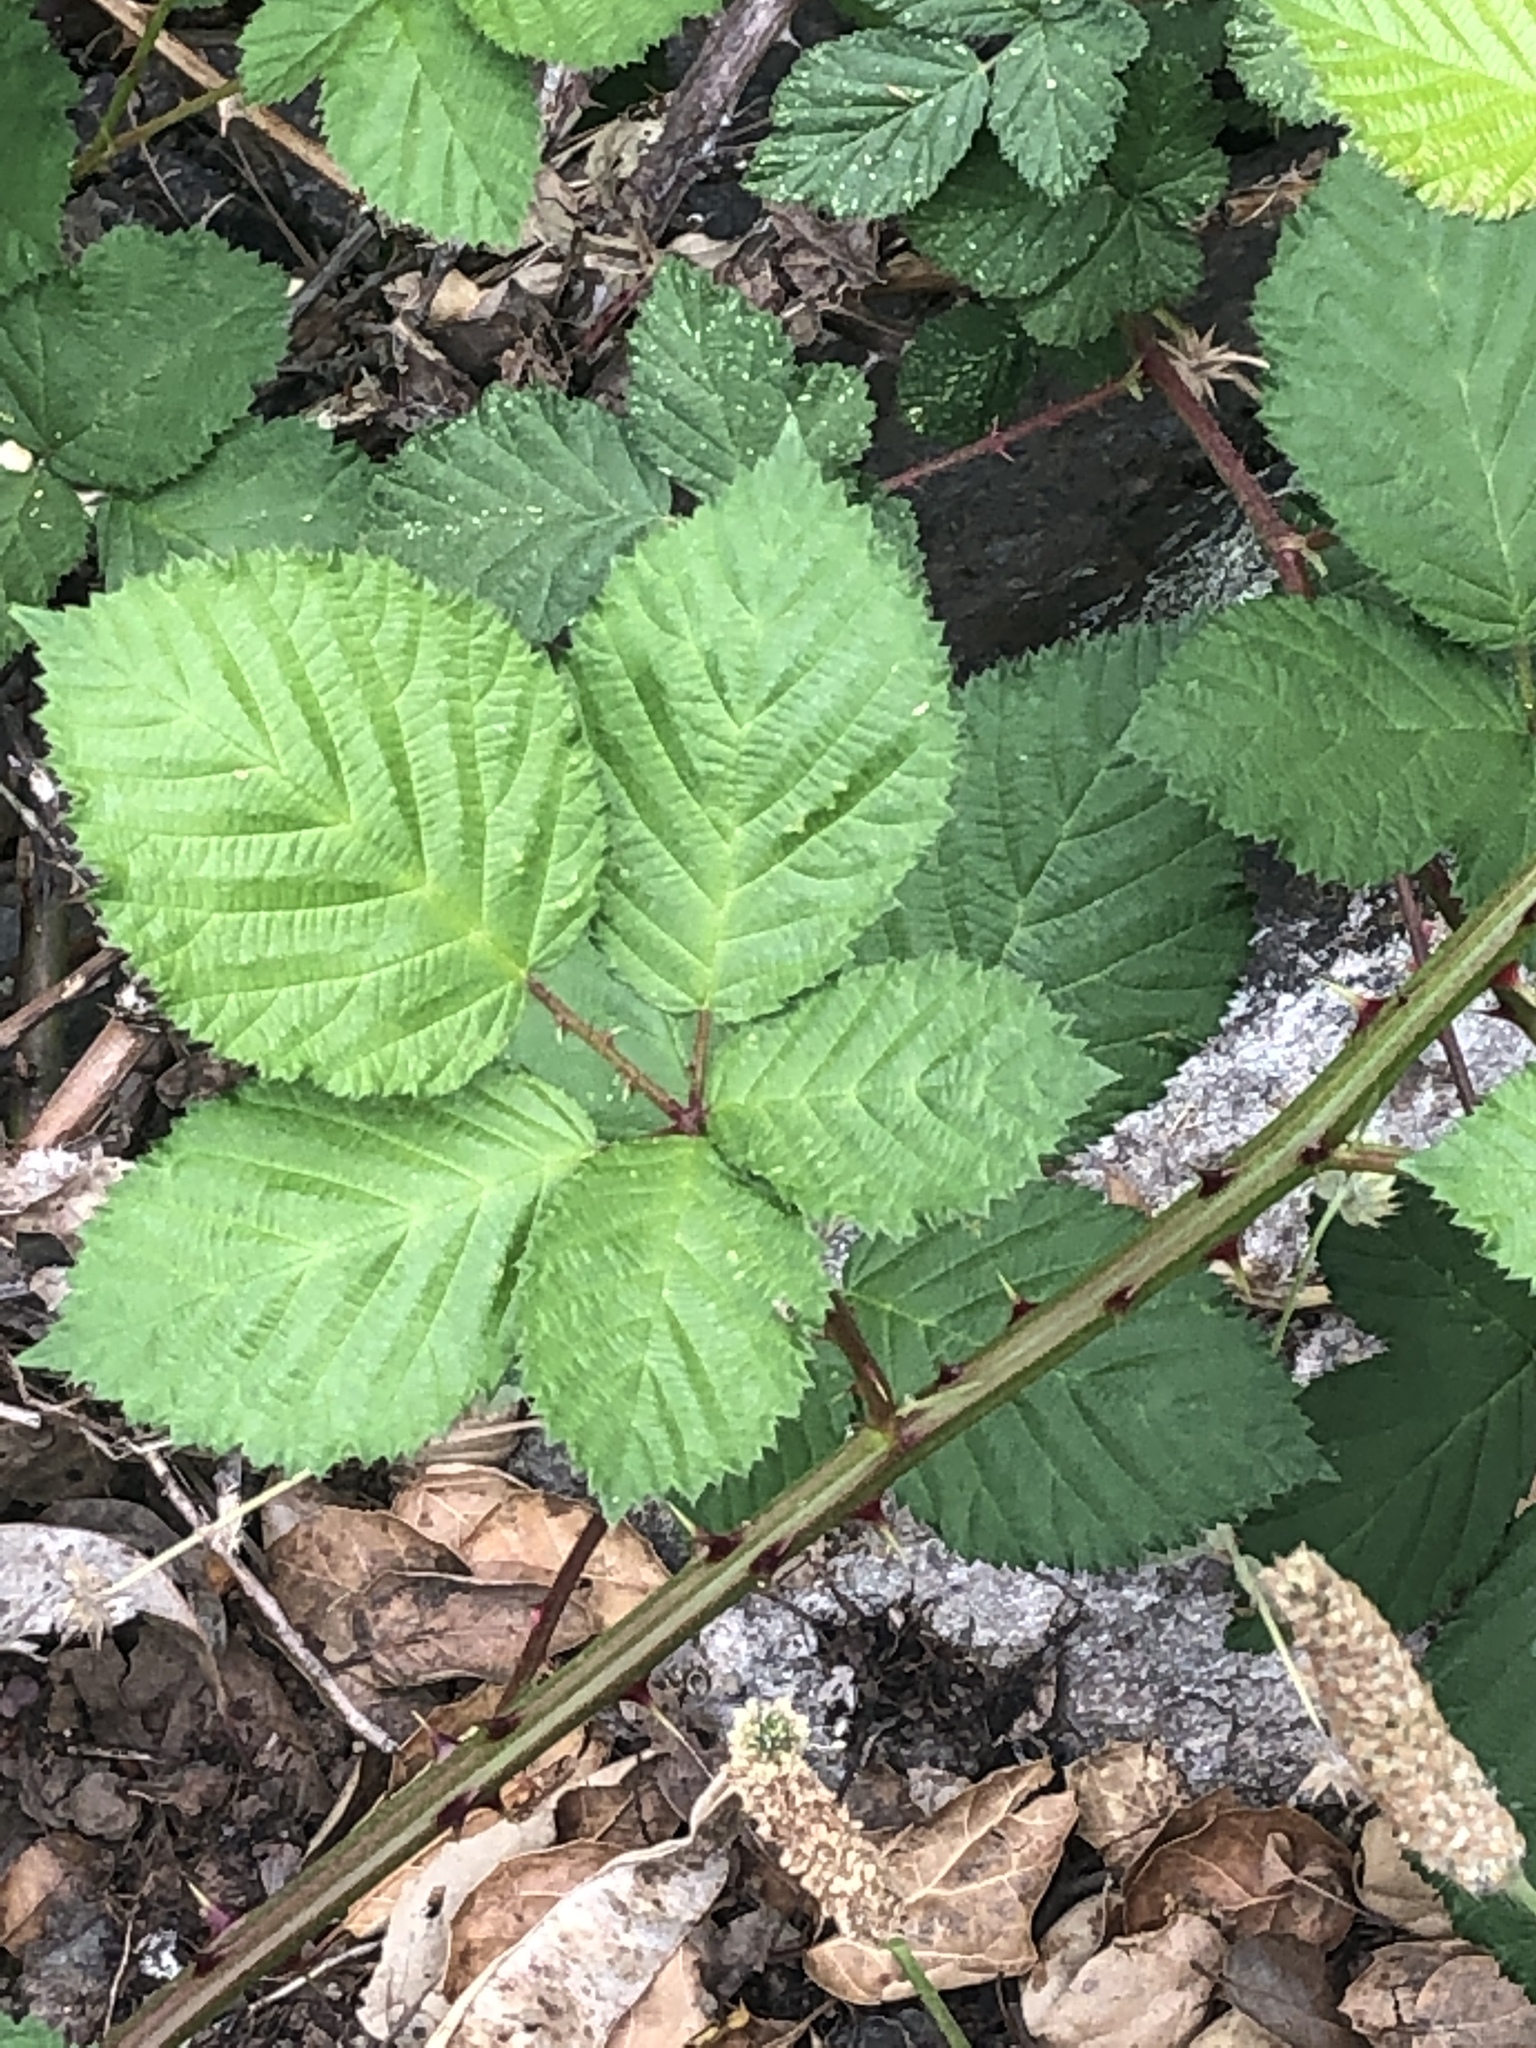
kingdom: Plantae
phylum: Tracheophyta
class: Magnoliopsida
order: Rosales
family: Rosaceae
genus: Rubus
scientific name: Rubus armeniacus
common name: Himalayan blackberry
